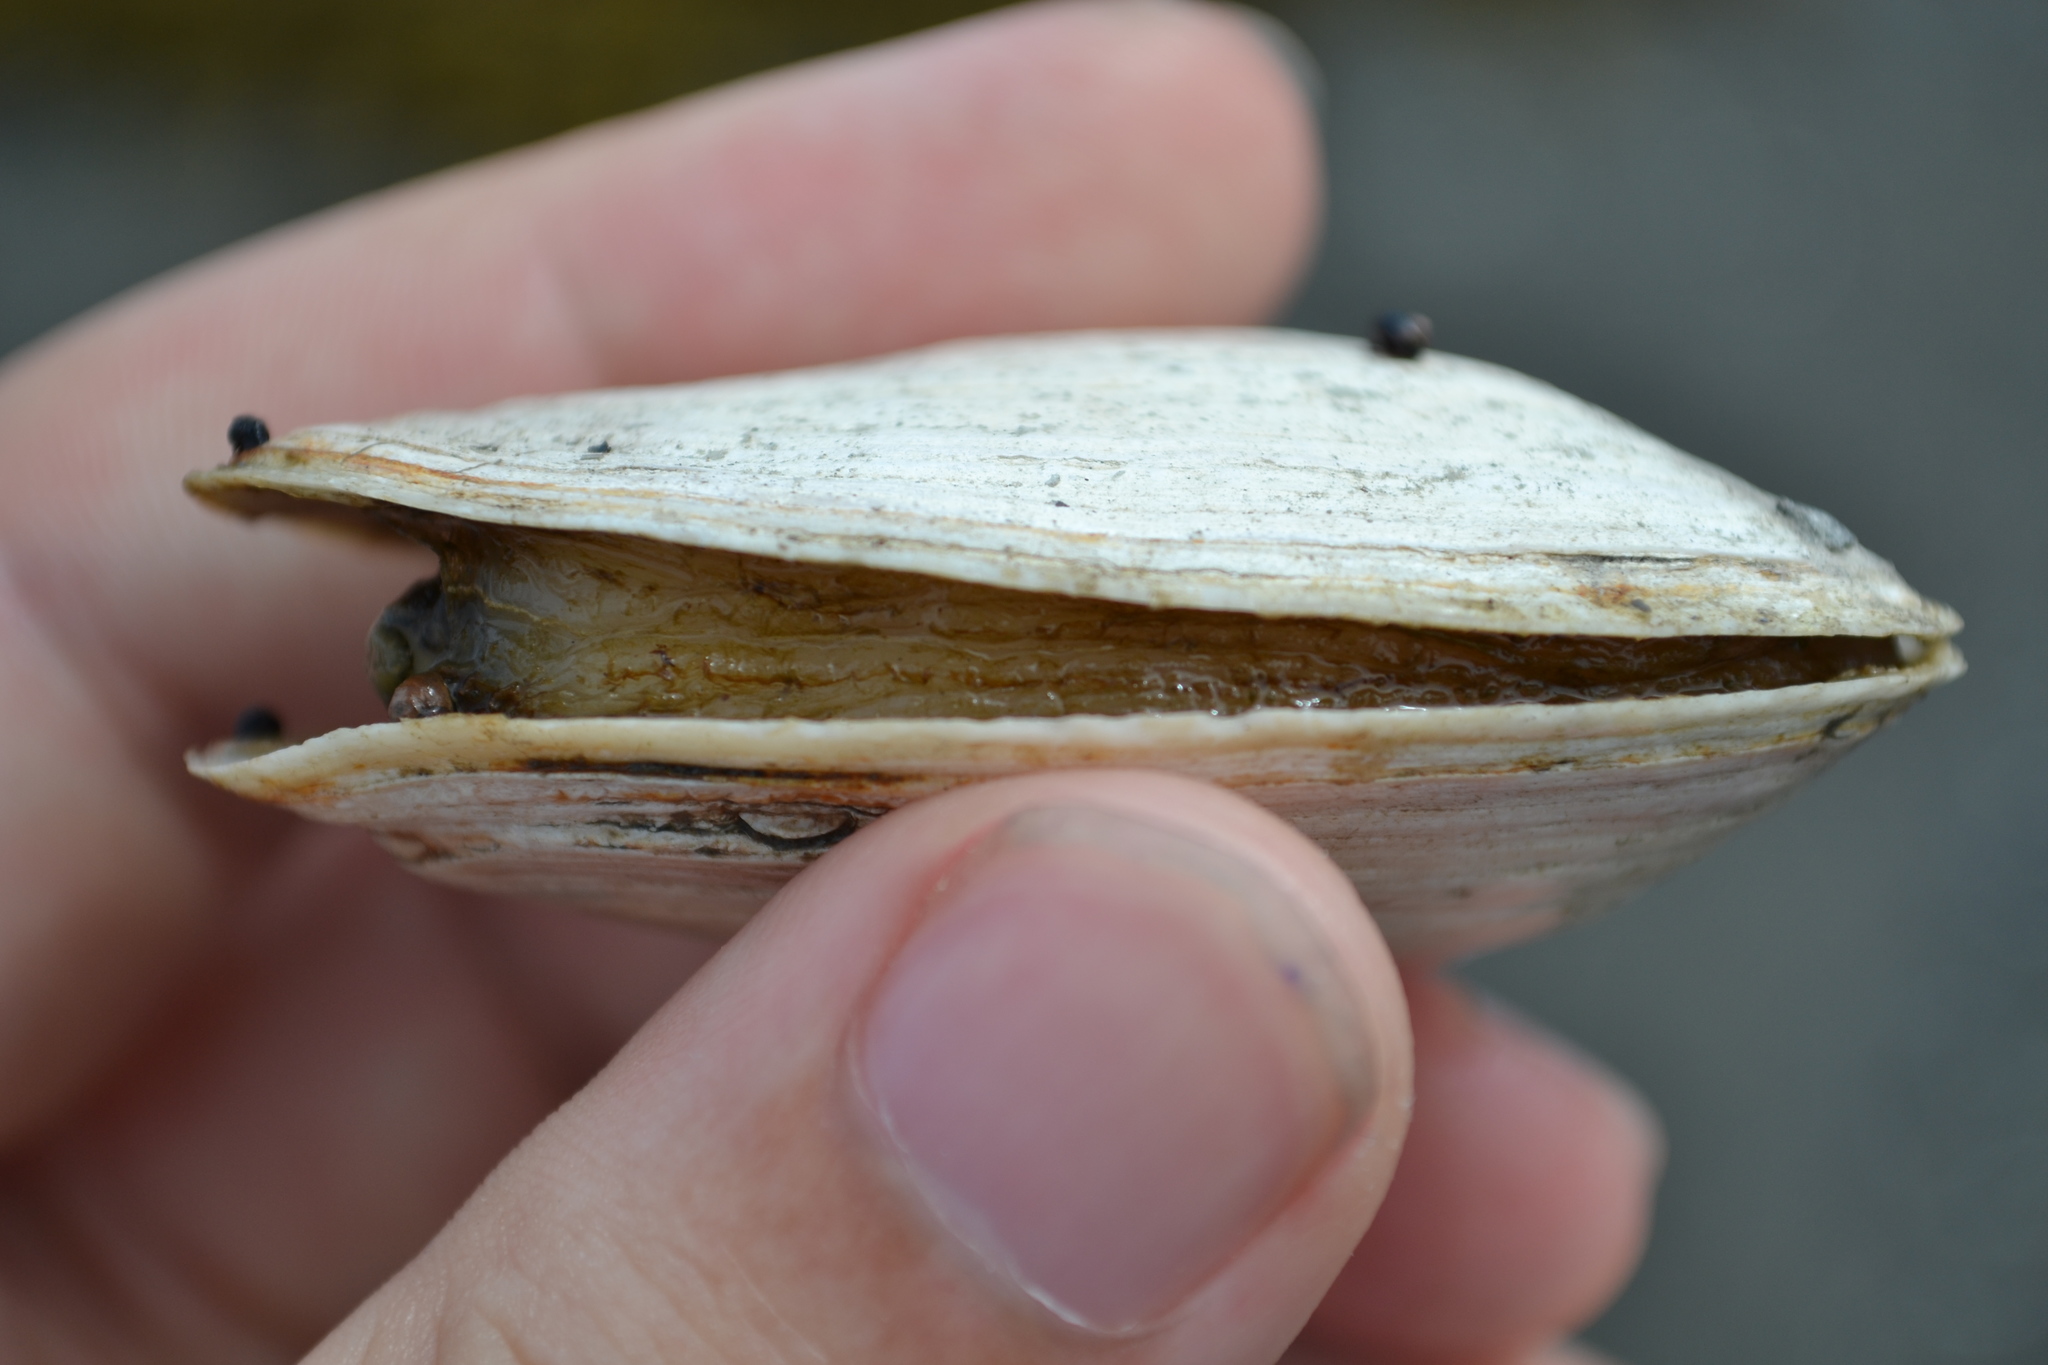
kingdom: Animalia
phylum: Mollusca
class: Bivalvia
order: Myida
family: Myidae
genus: Mya
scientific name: Mya arenaria
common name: Soft-shelled clam
